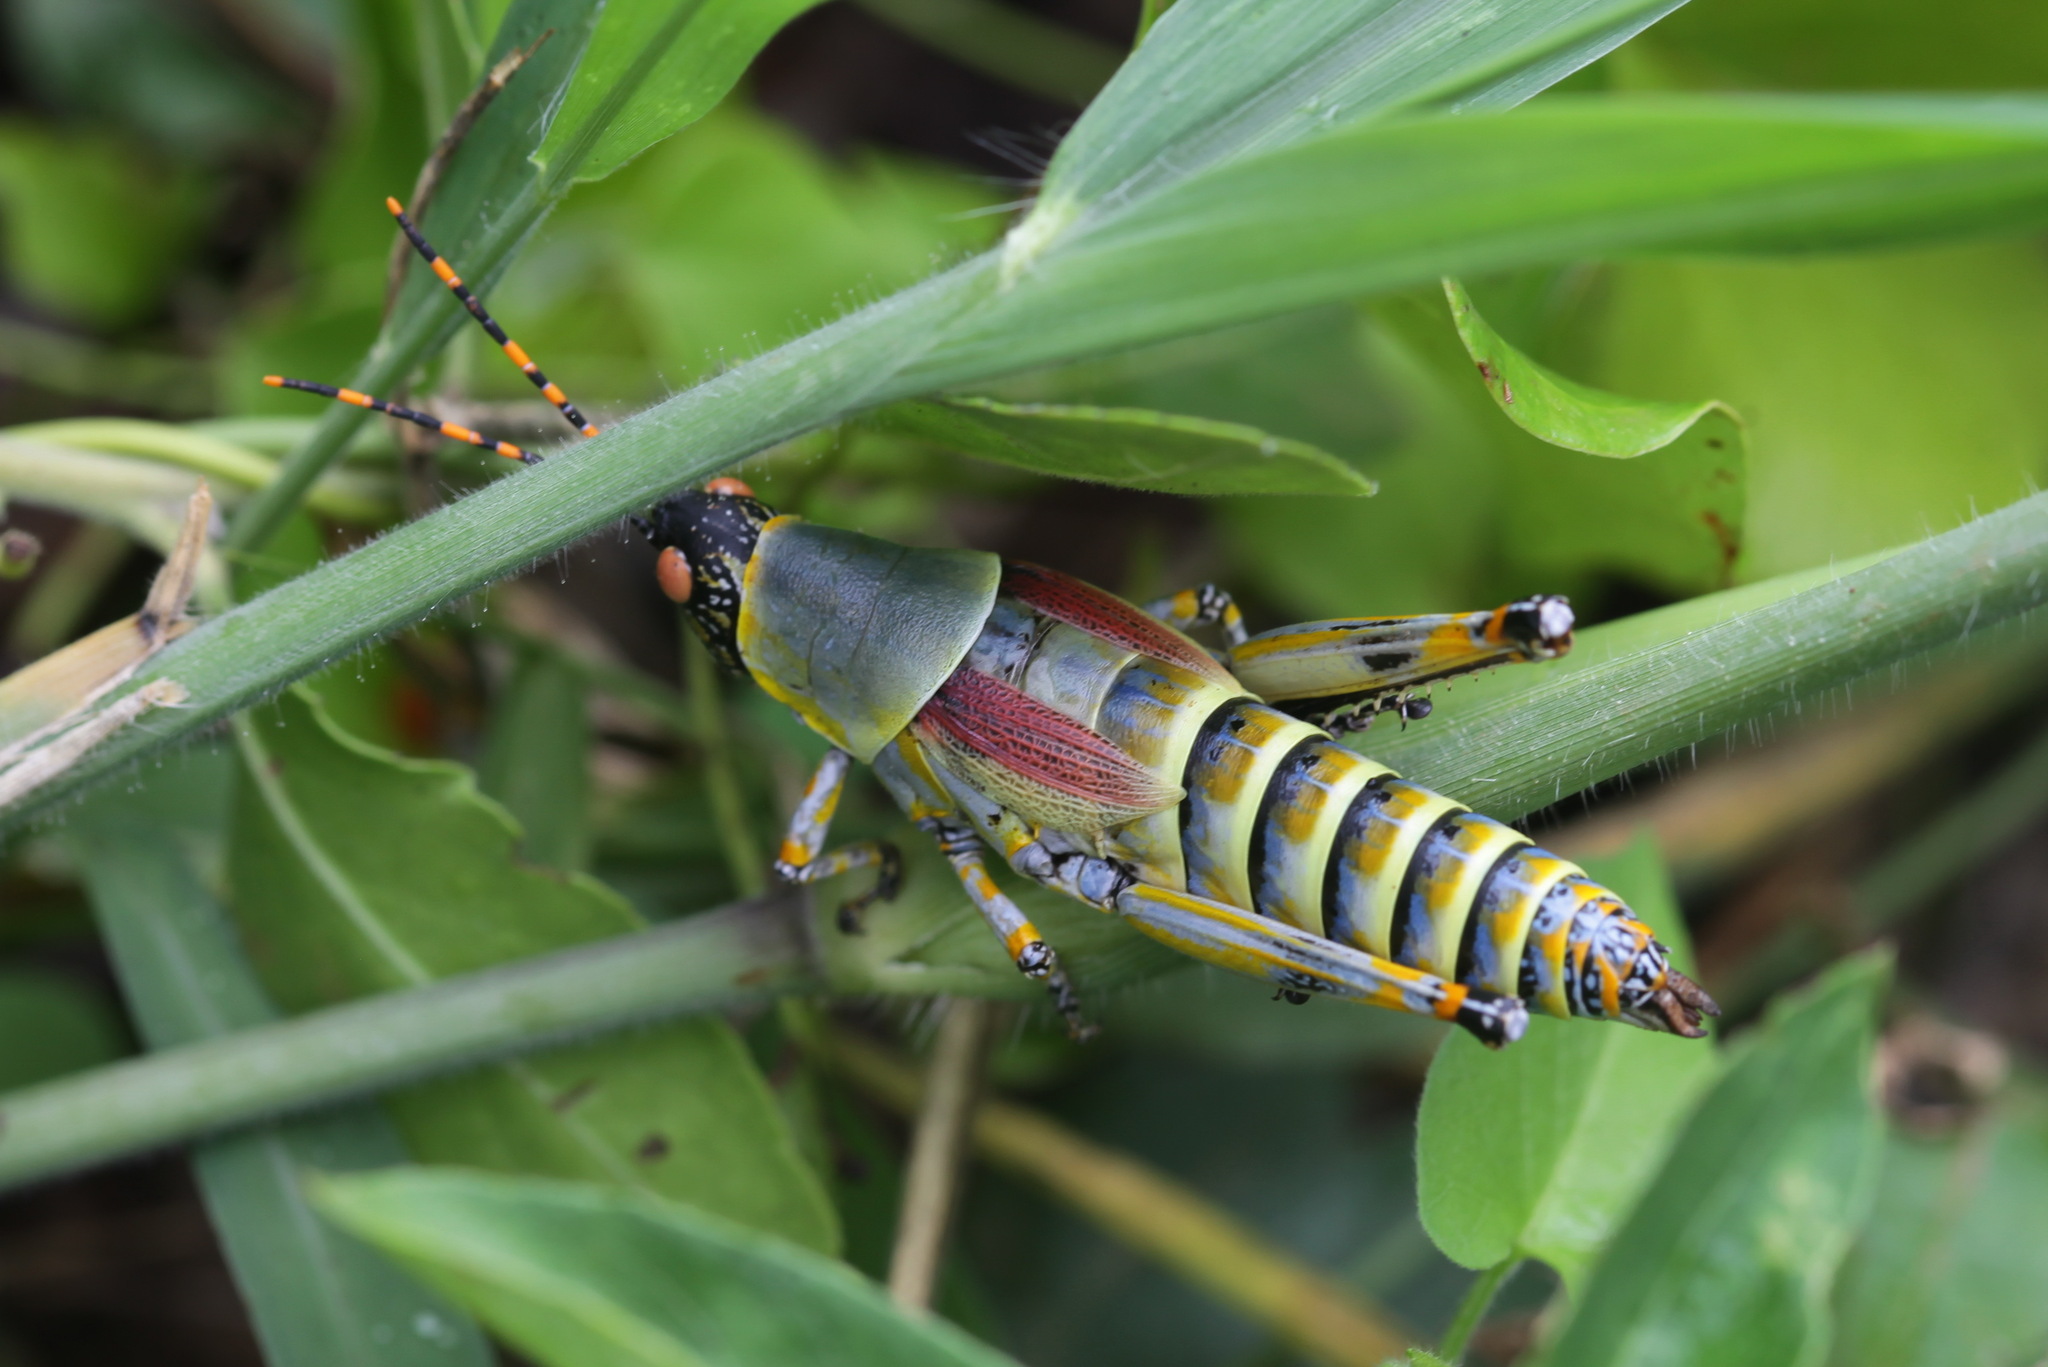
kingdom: Animalia
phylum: Arthropoda
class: Insecta
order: Orthoptera
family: Pyrgomorphidae
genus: Zonocerus
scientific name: Zonocerus elegans
